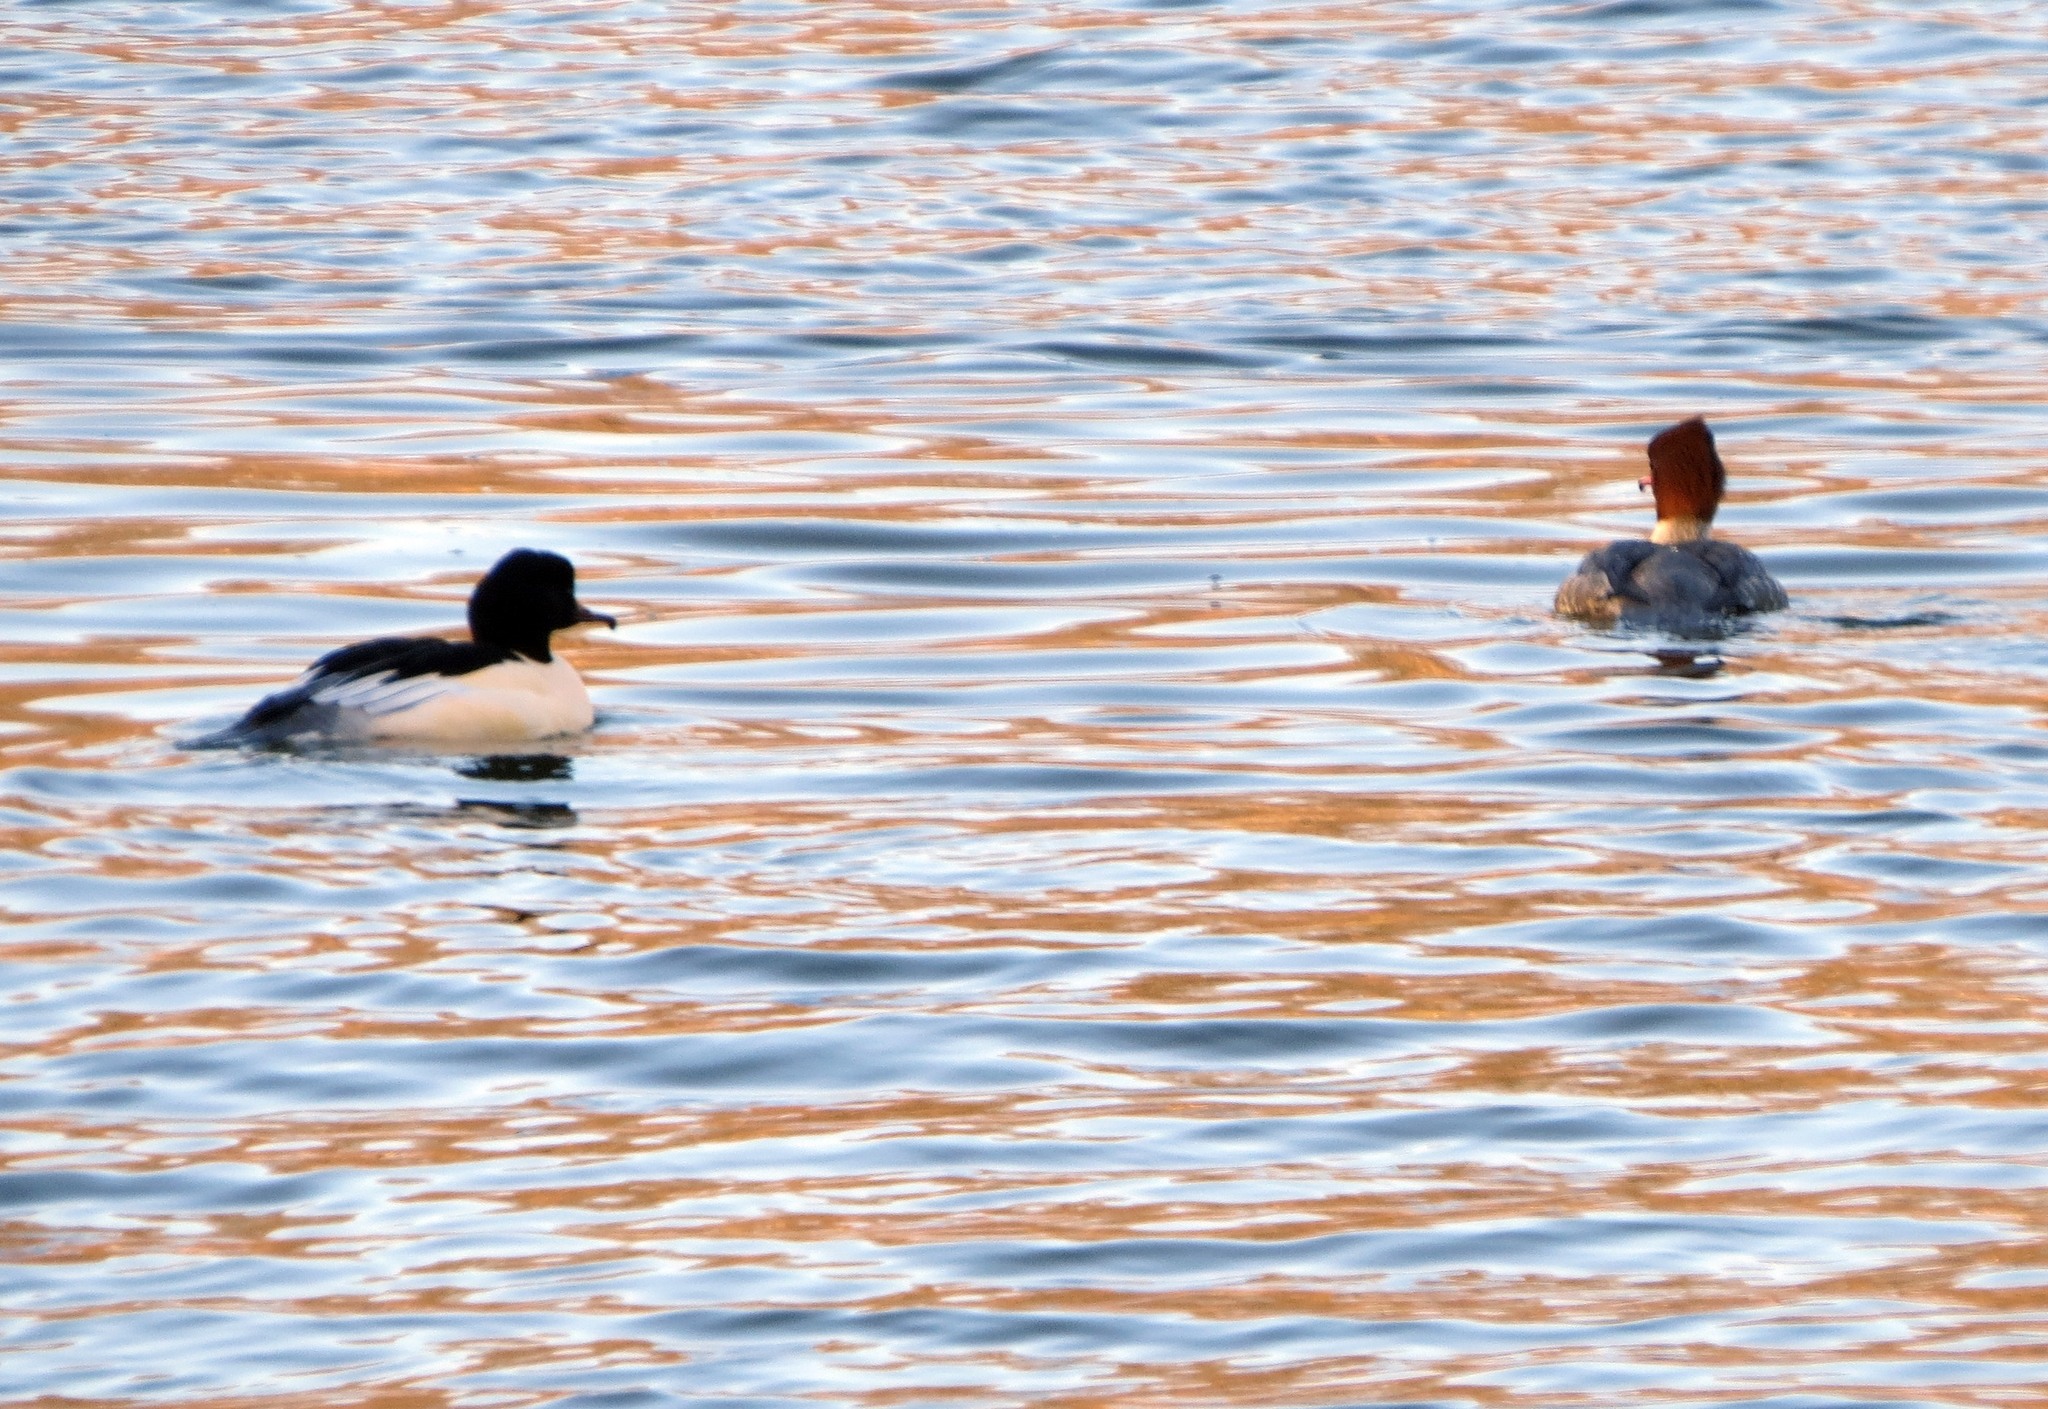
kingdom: Animalia
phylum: Chordata
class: Aves
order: Anseriformes
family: Anatidae
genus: Mergus
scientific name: Mergus merganser
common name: Common merganser
